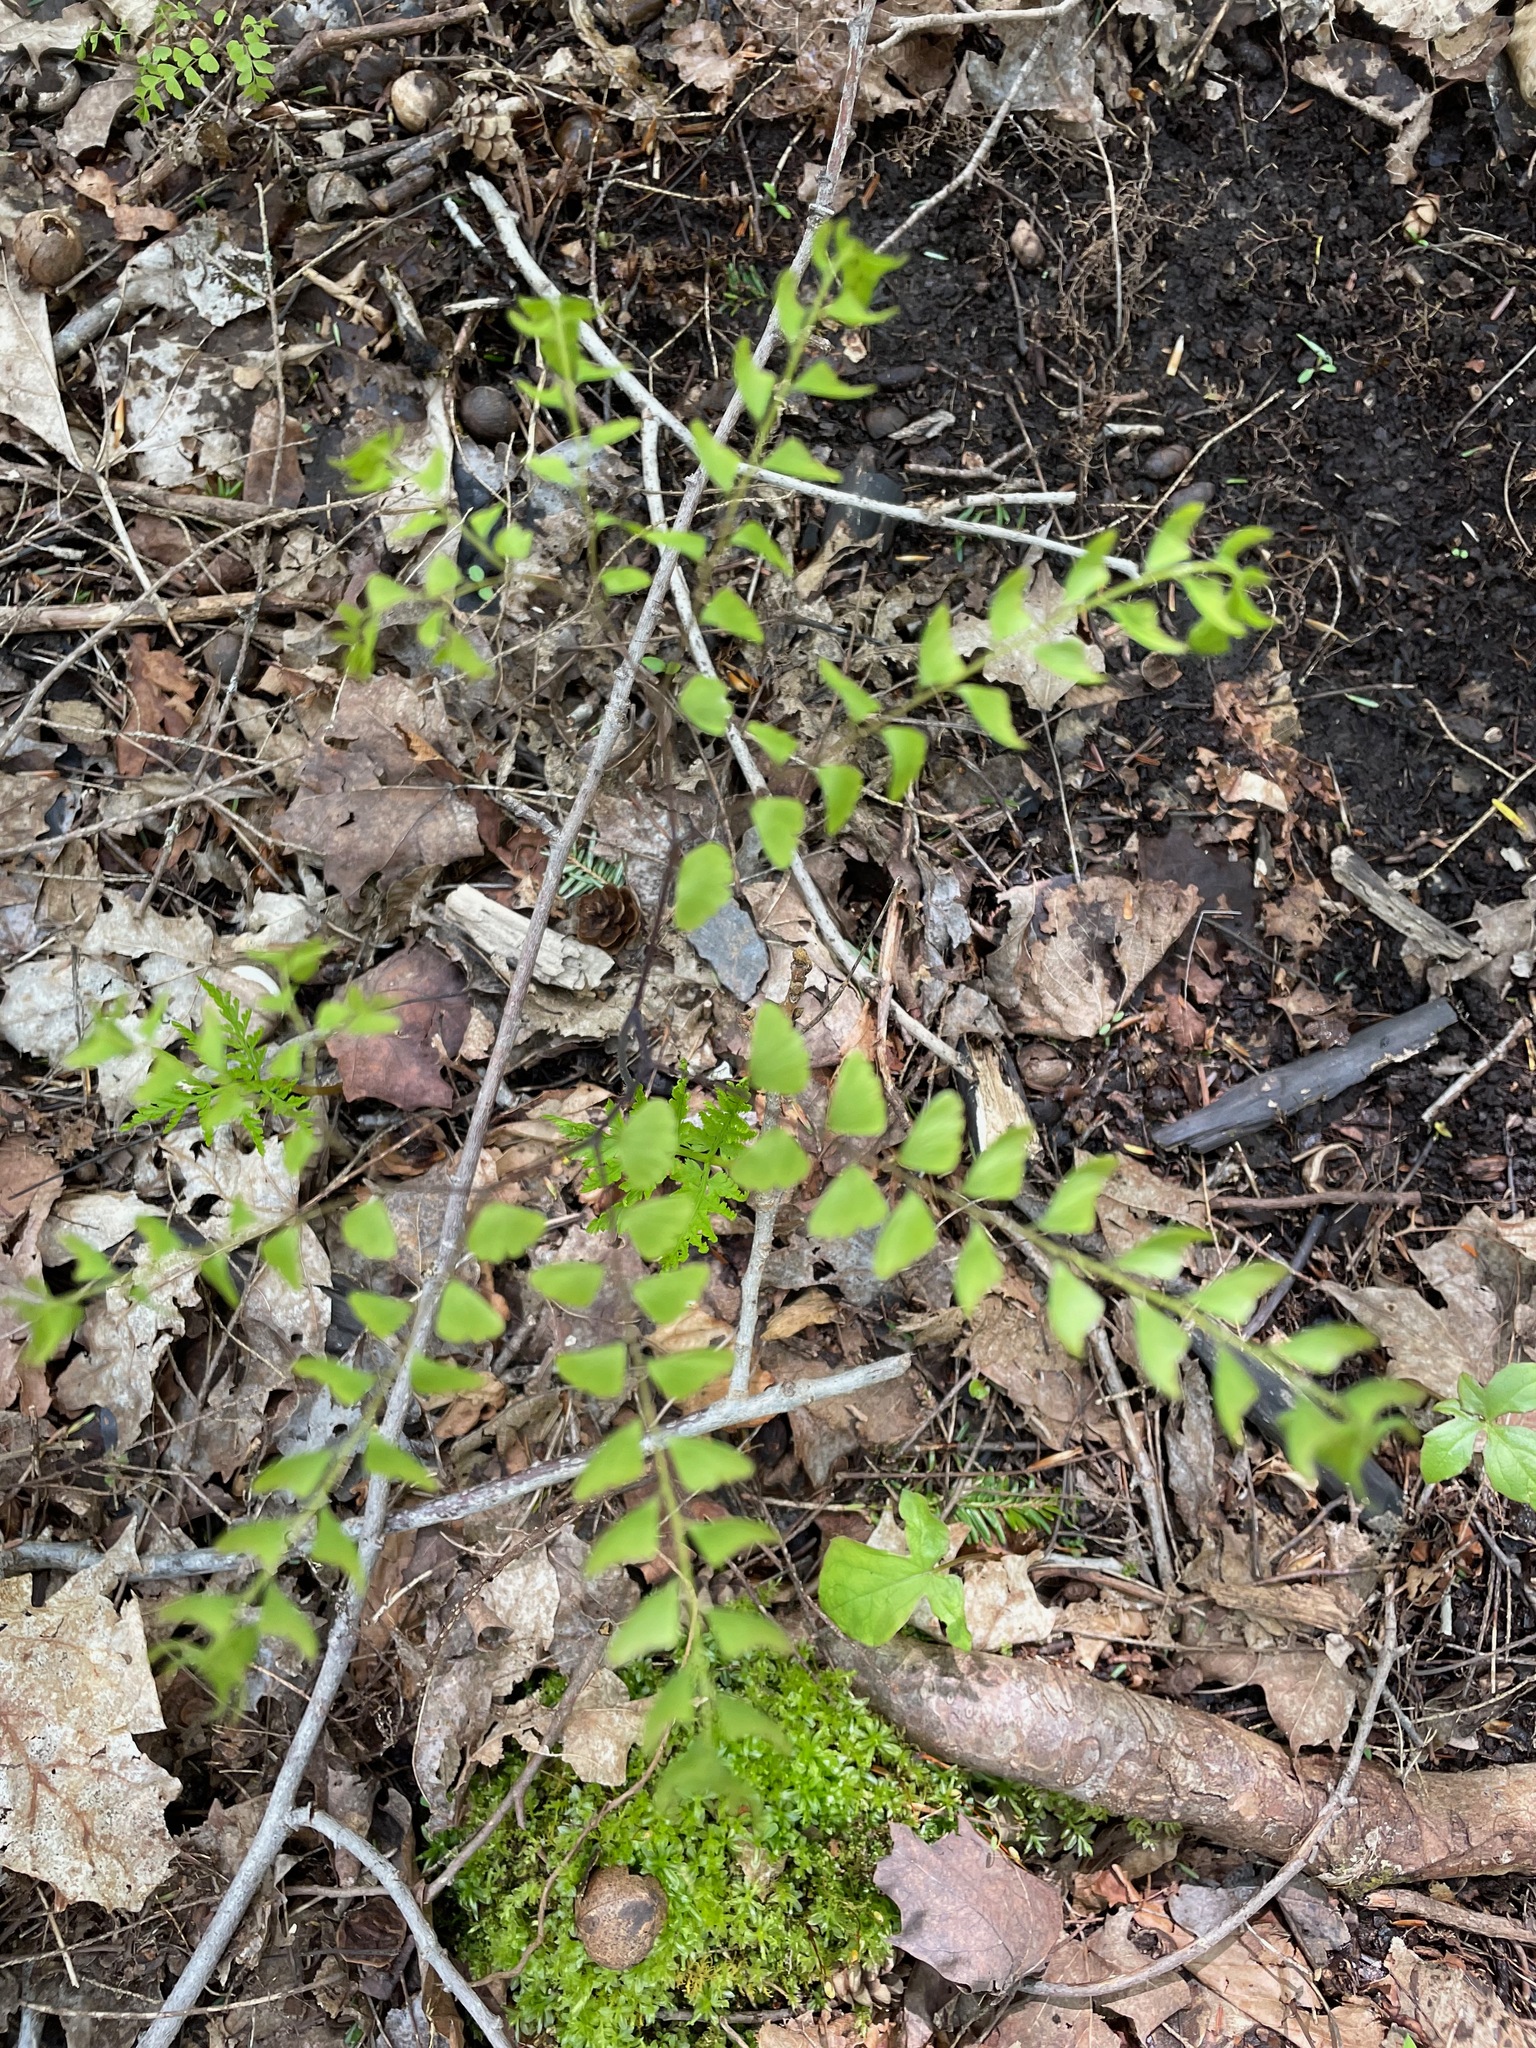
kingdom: Plantae
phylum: Tracheophyta
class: Polypodiopsida
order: Polypodiales
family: Pteridaceae
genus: Adiantum
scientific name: Adiantum pedatum
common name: Five-finger fern
